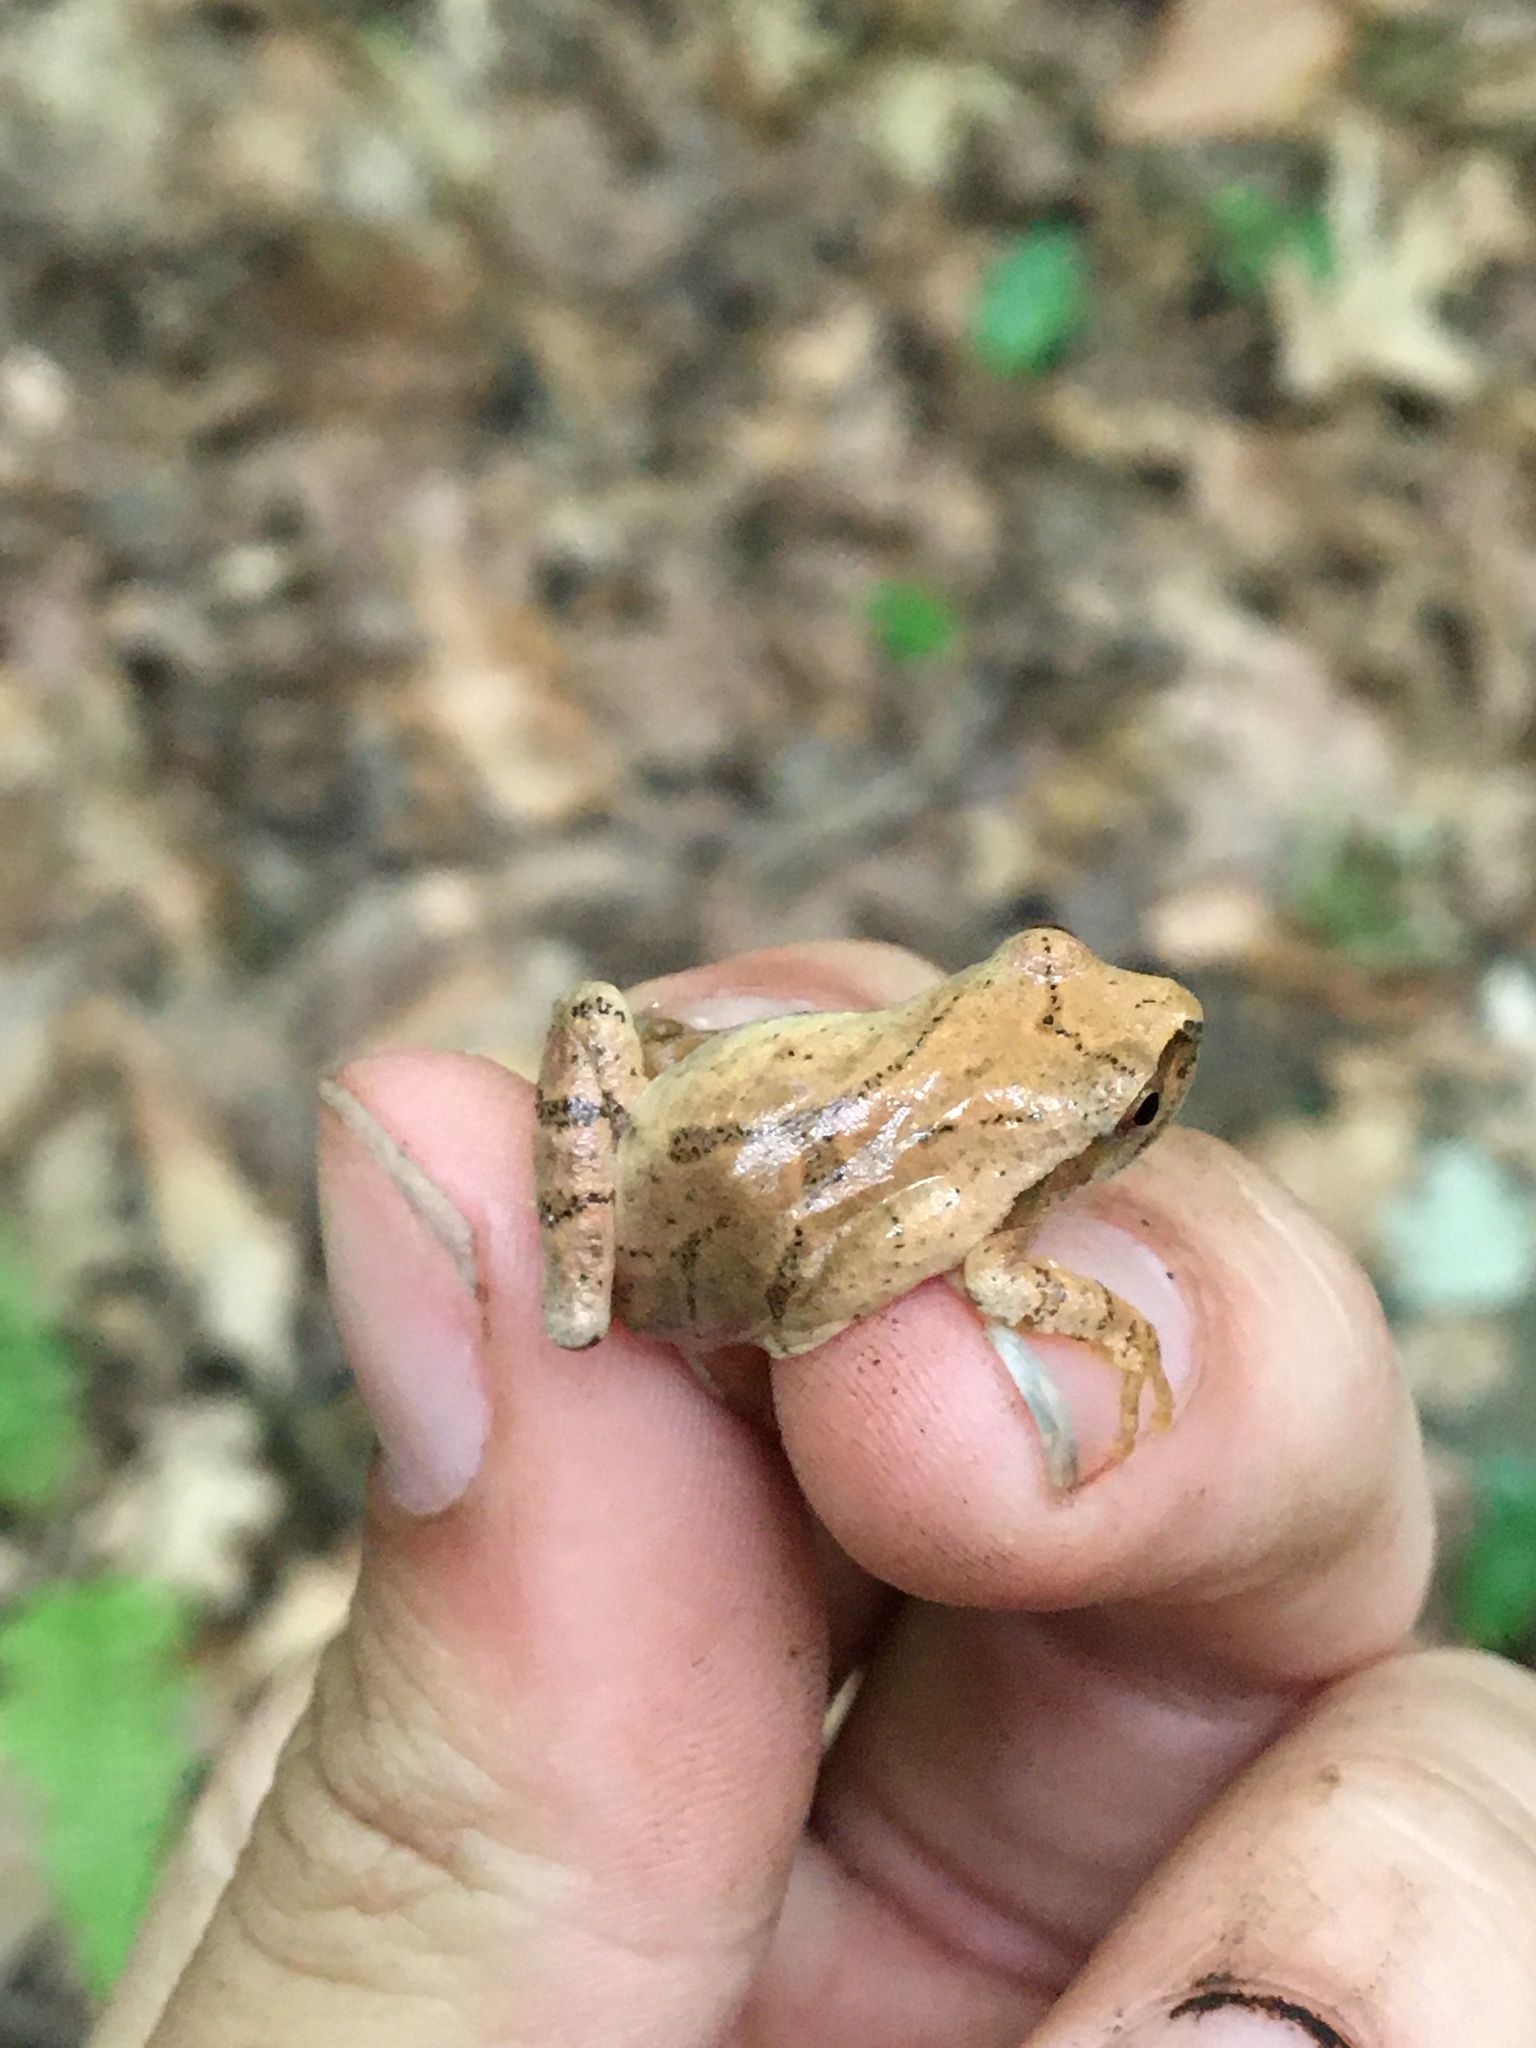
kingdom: Animalia
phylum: Chordata
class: Amphibia
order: Anura
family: Hylidae
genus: Pseudacris
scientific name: Pseudacris crucifer
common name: Spring peeper
